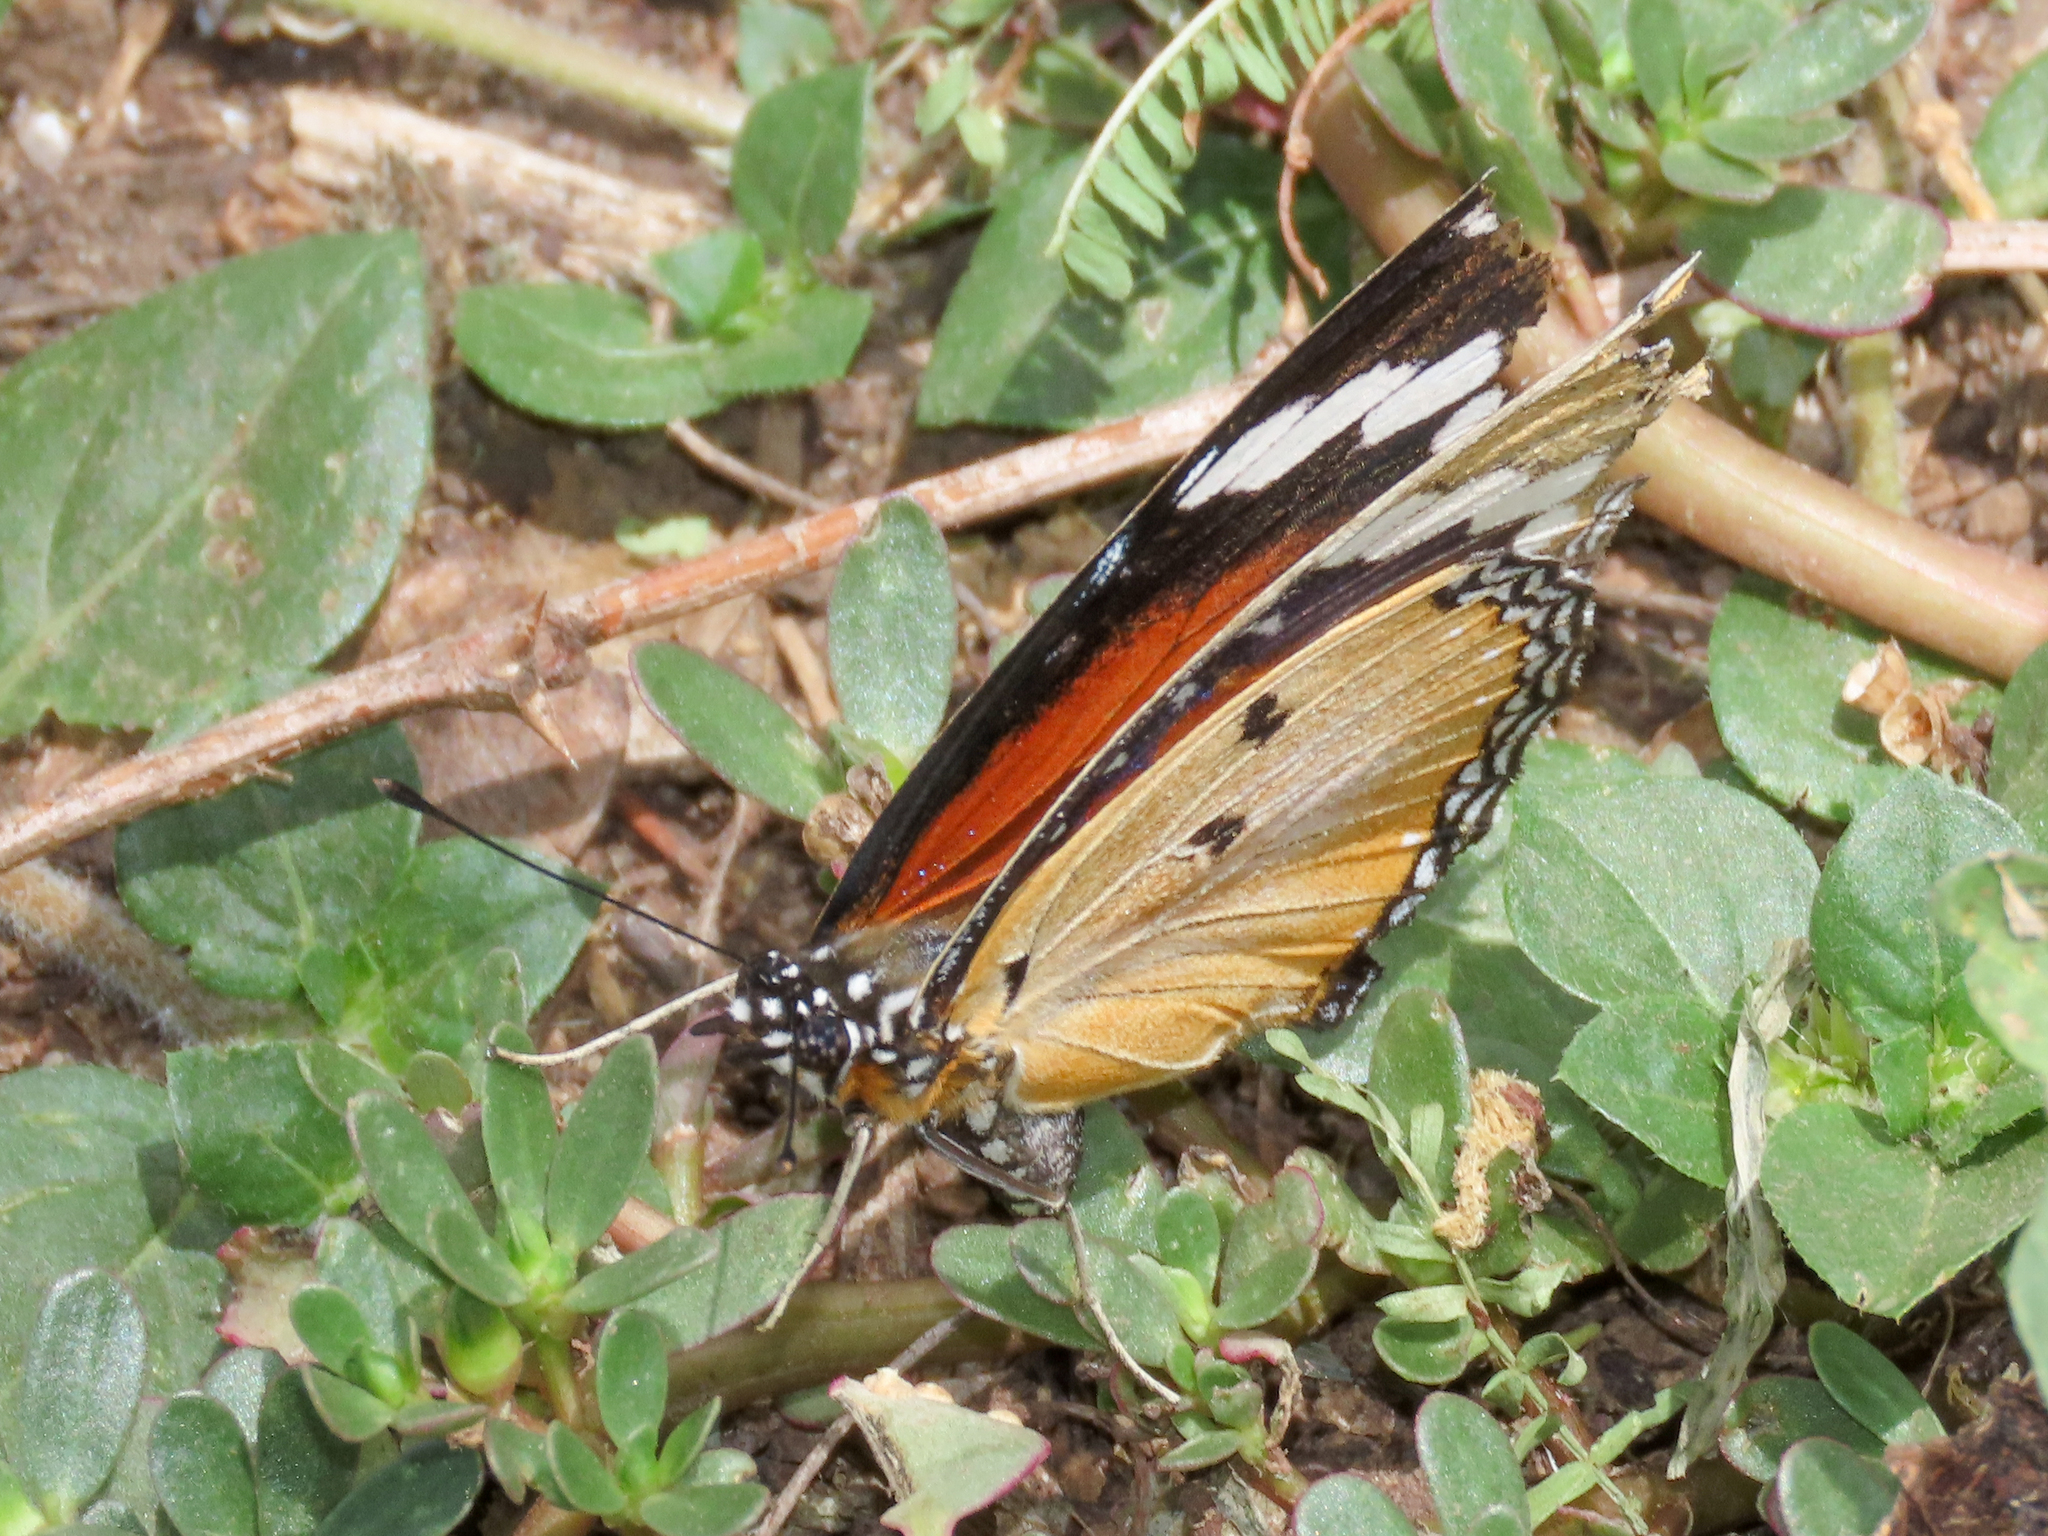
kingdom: Animalia
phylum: Arthropoda
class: Insecta
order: Lepidoptera
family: Nymphalidae
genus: Hypolimnas
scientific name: Hypolimnas misippus
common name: False plain tiger
